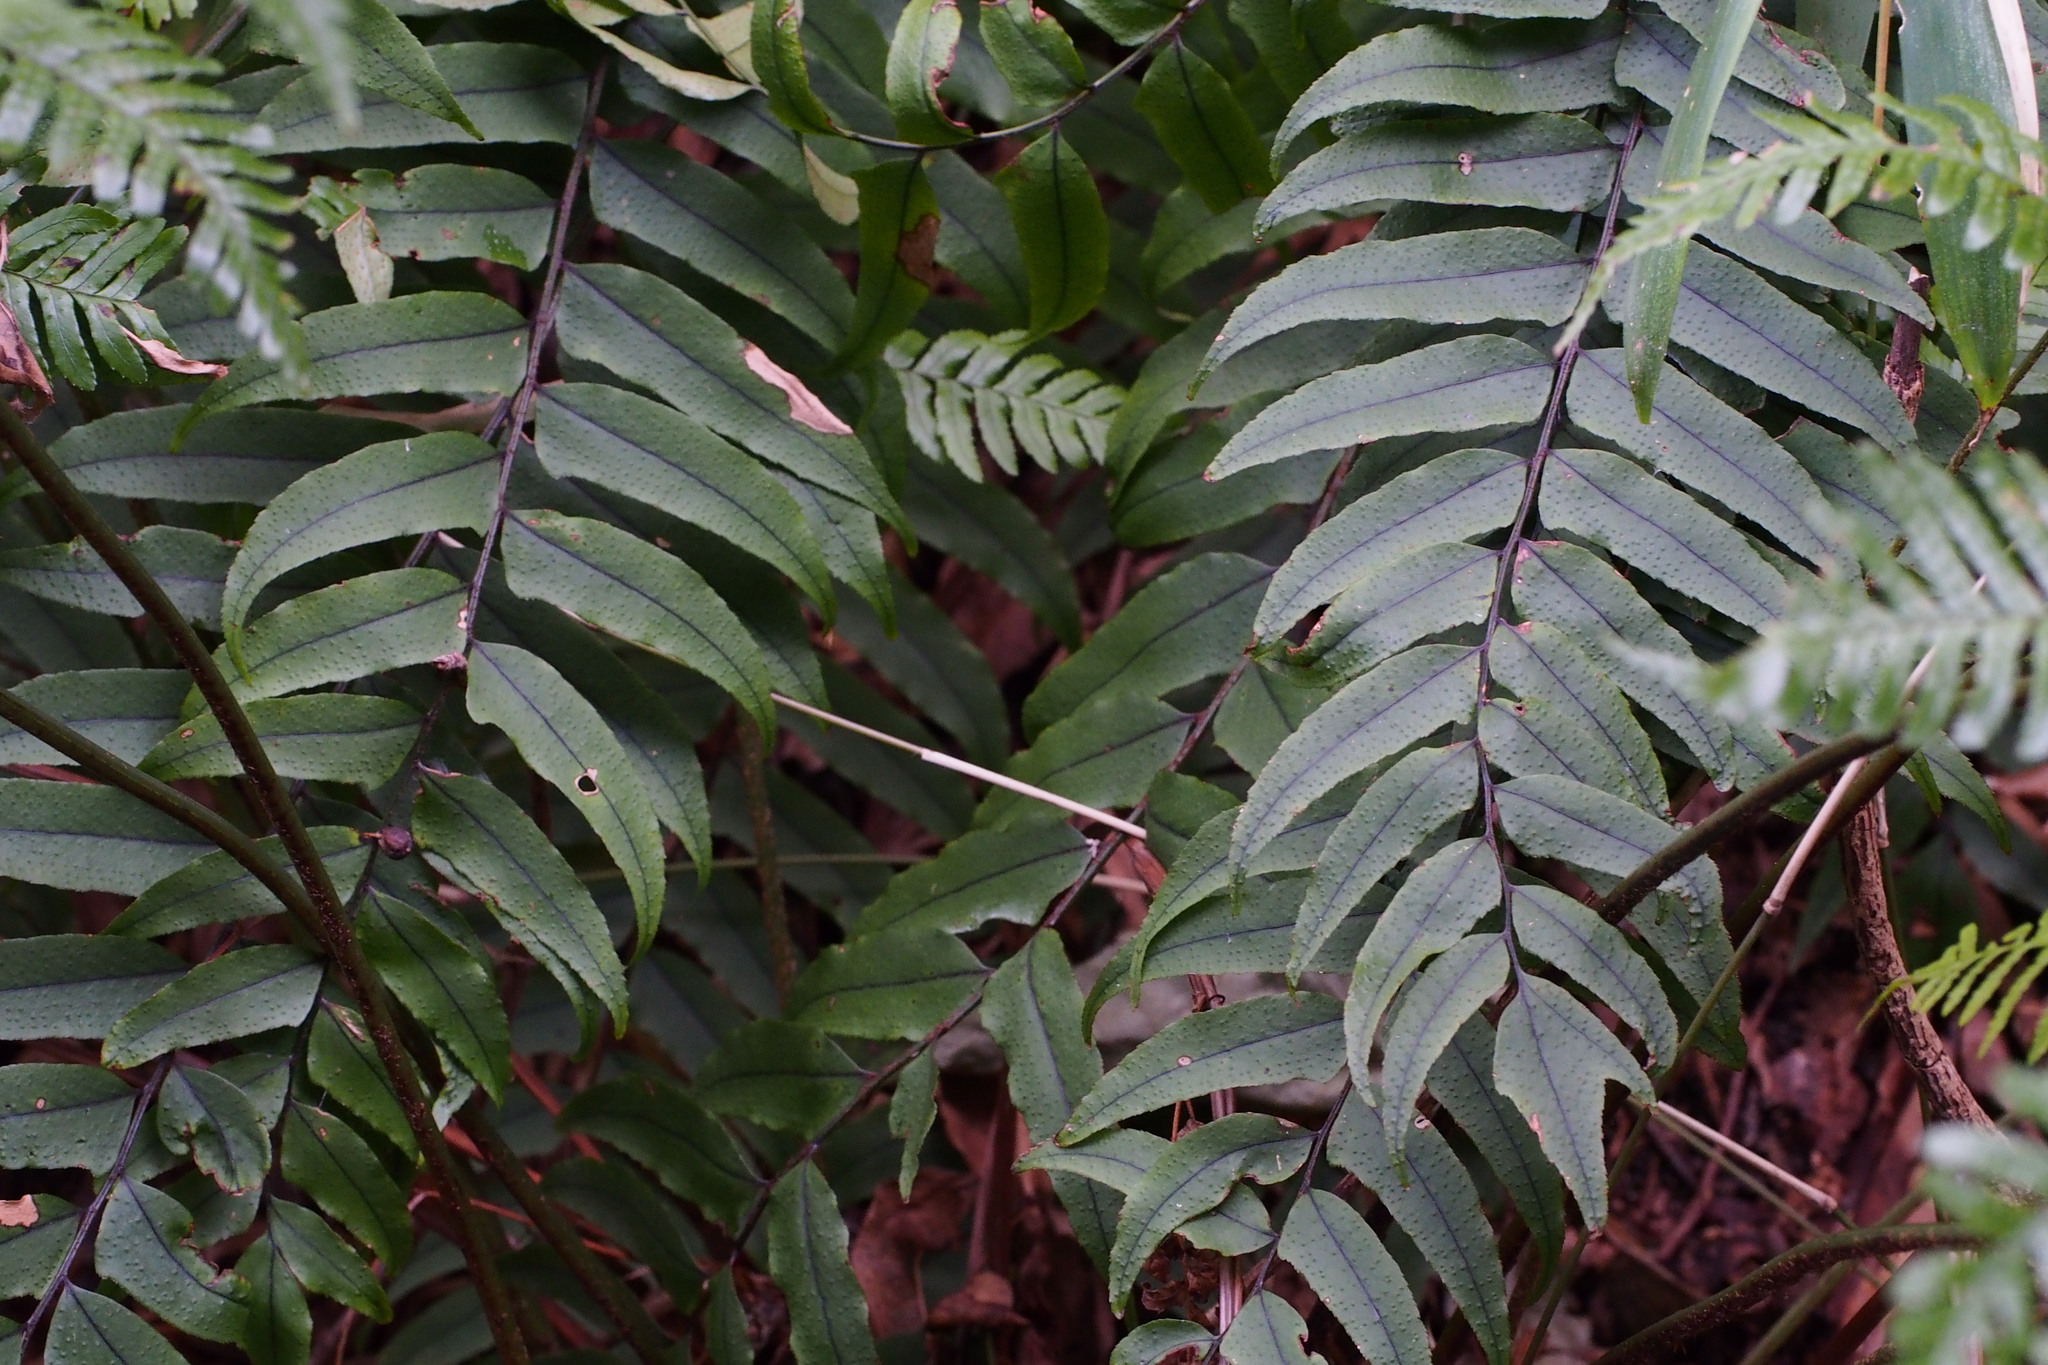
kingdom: Plantae
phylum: Tracheophyta
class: Polypodiopsida
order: Polypodiales
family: Dryopteridaceae
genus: Cyrtomium
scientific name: Cyrtomium fortunei
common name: Asian netvein hollyfern
